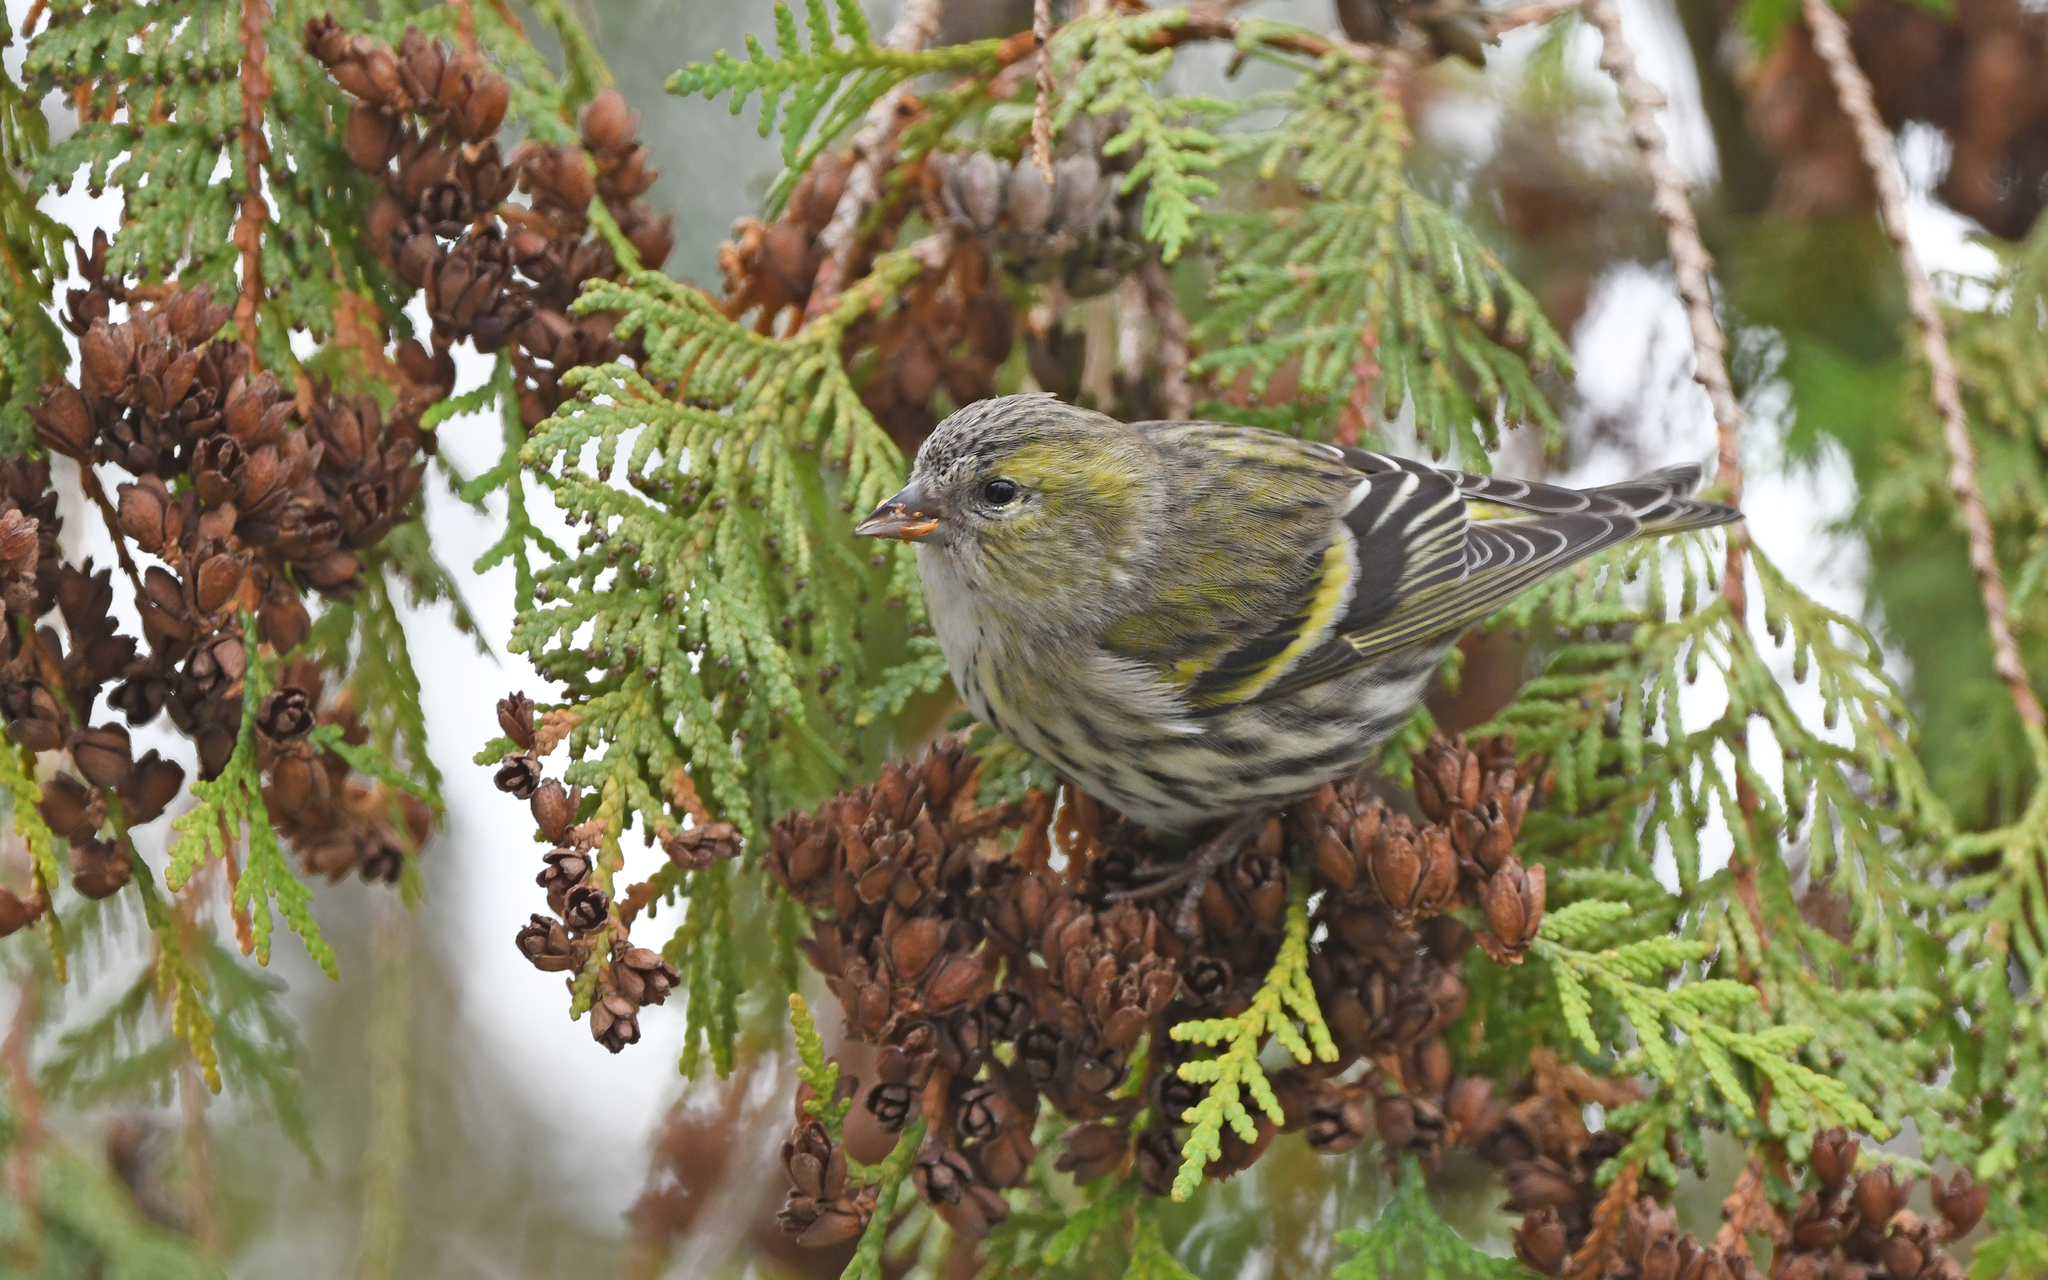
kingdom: Animalia
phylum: Chordata
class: Aves
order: Passeriformes
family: Fringillidae
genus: Spinus
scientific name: Spinus spinus
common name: Eurasian siskin
